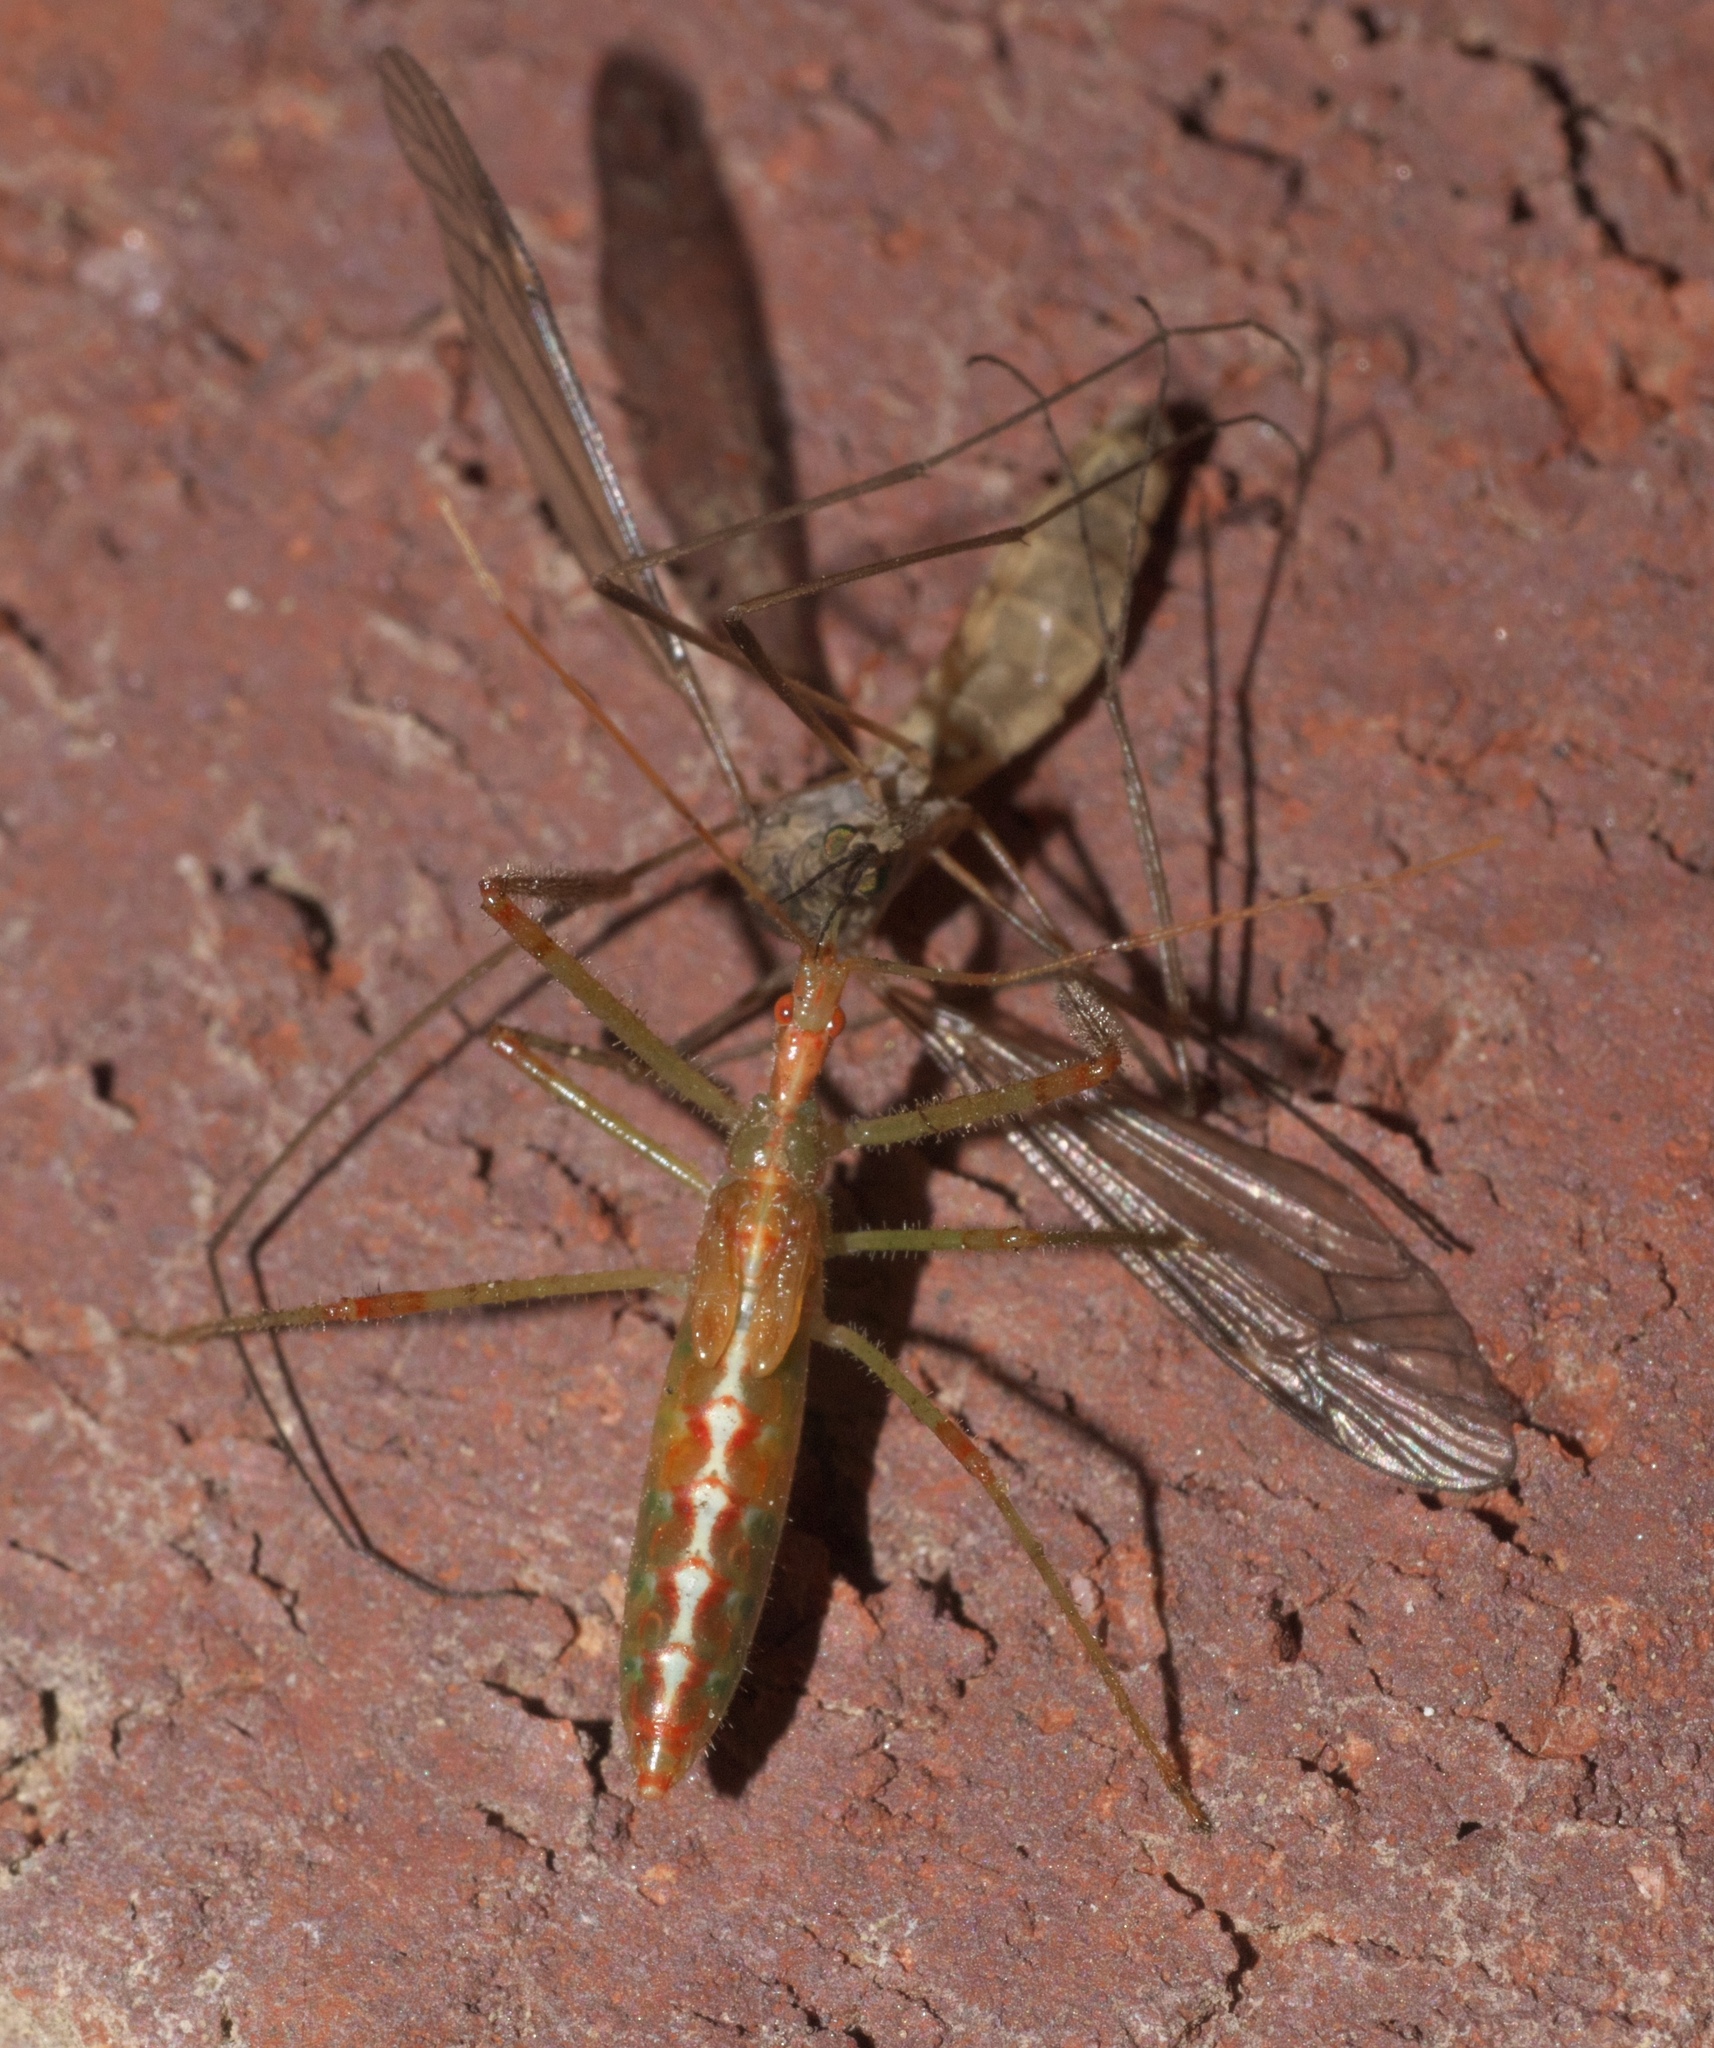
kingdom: Animalia
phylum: Arthropoda
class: Insecta
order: Hemiptera
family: Reduviidae
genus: Zelus
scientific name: Zelus luridus
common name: Pale green assassin bug
